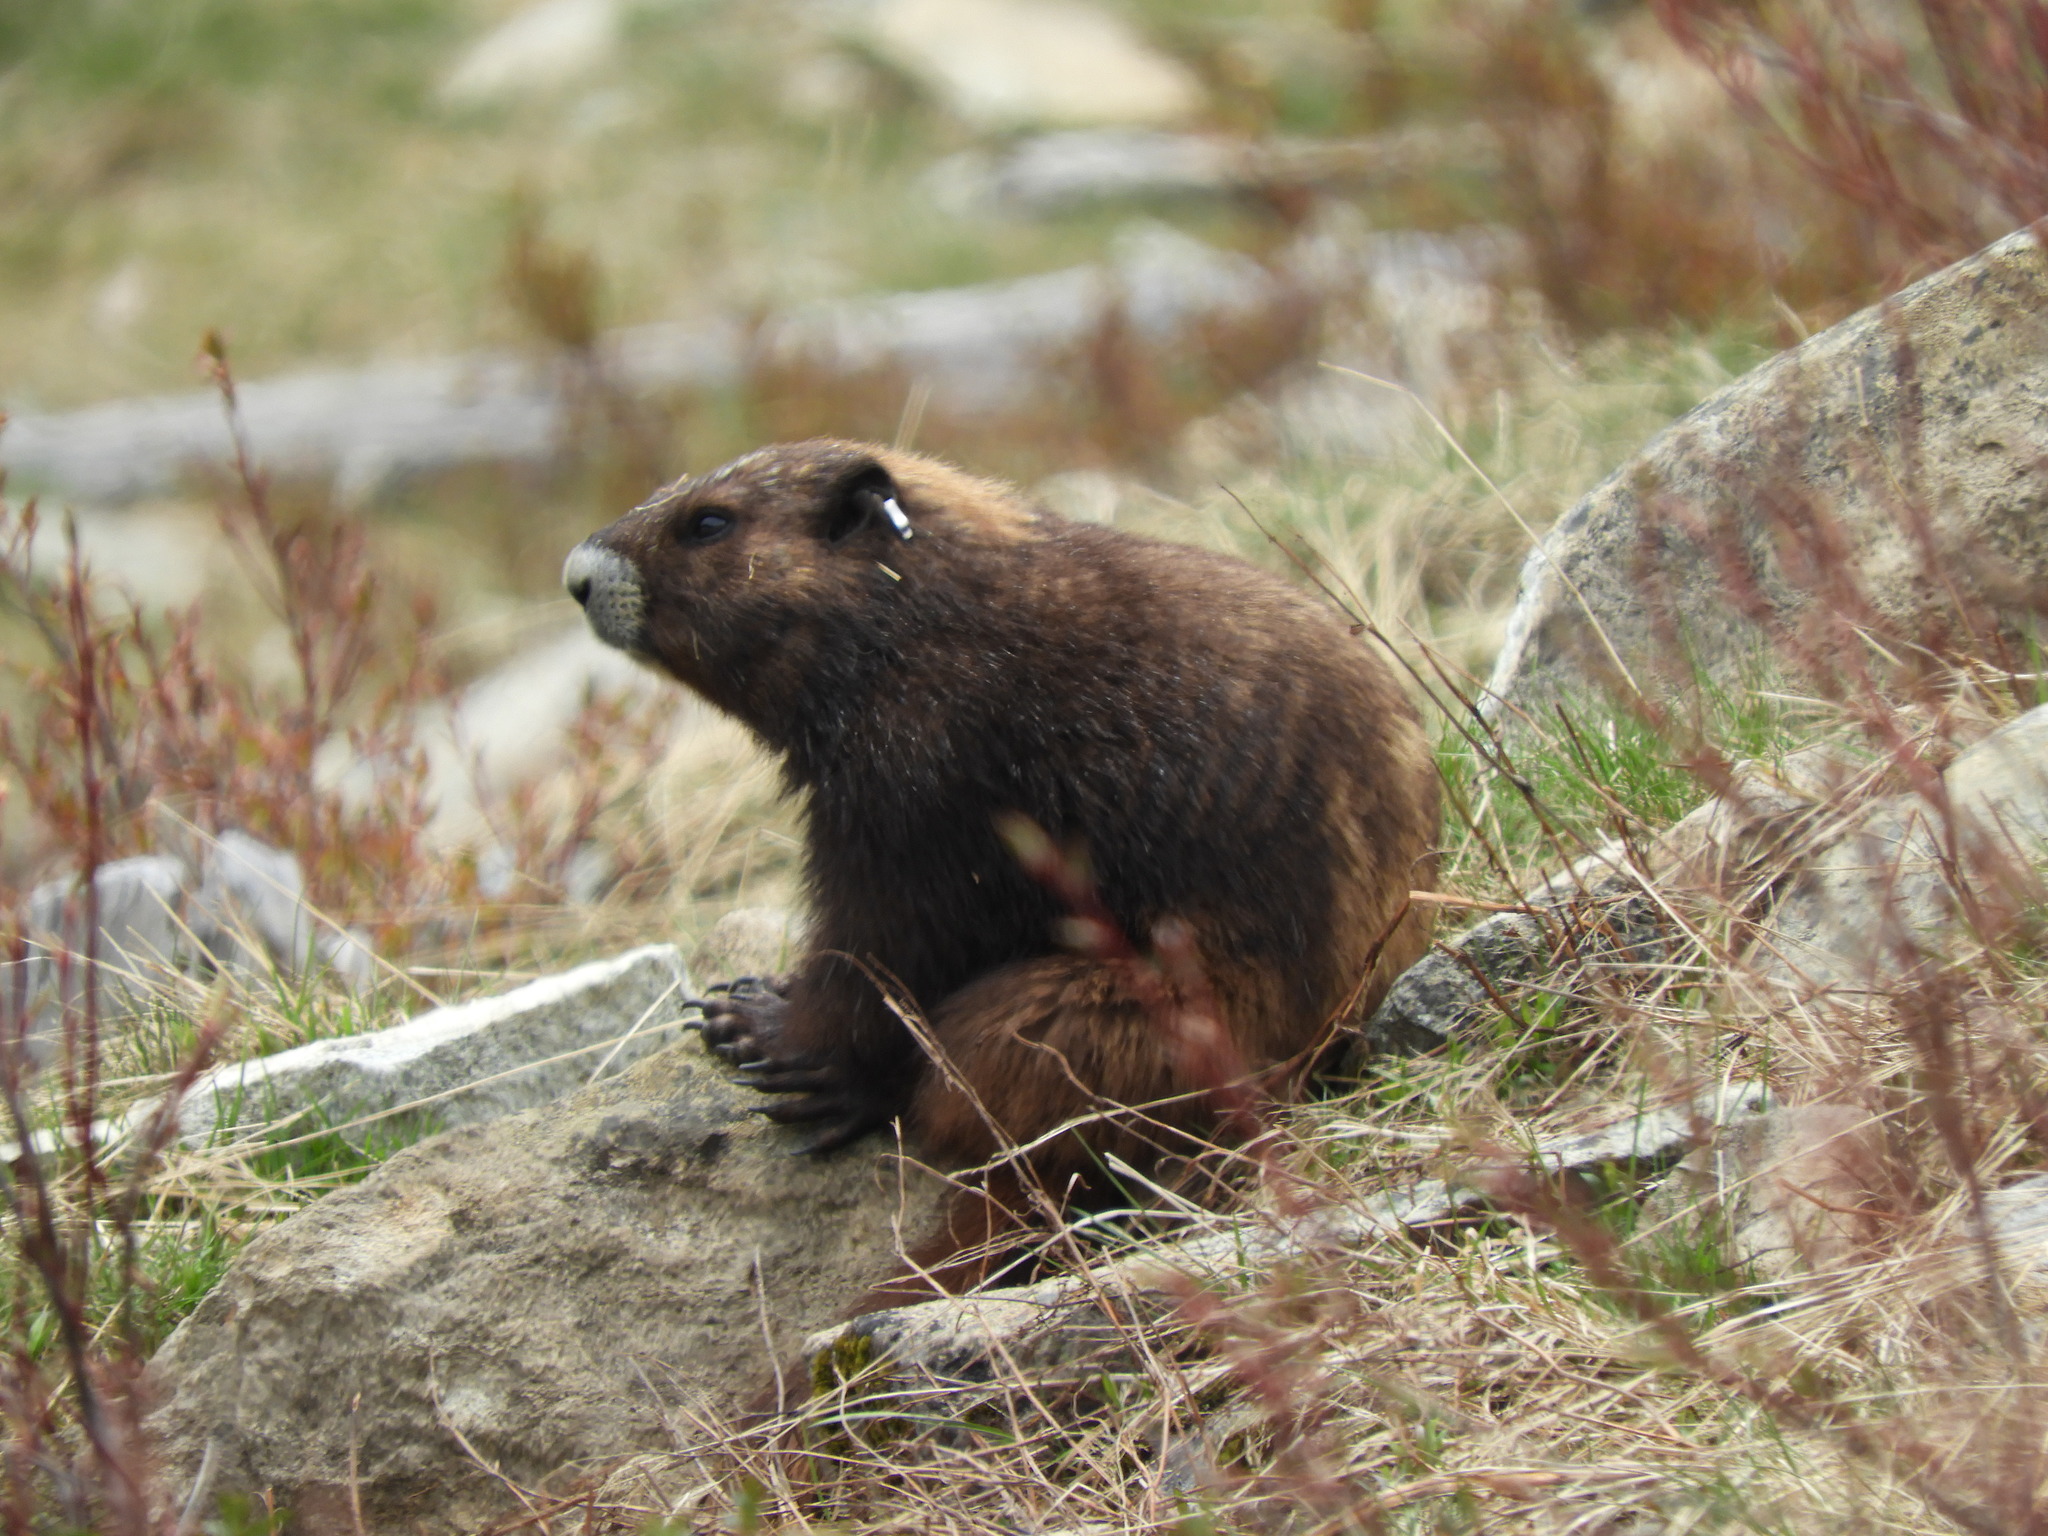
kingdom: Animalia
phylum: Chordata
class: Mammalia
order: Rodentia
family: Sciuridae
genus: Marmota
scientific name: Marmota vancouverensis
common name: Vancouver island marmot
